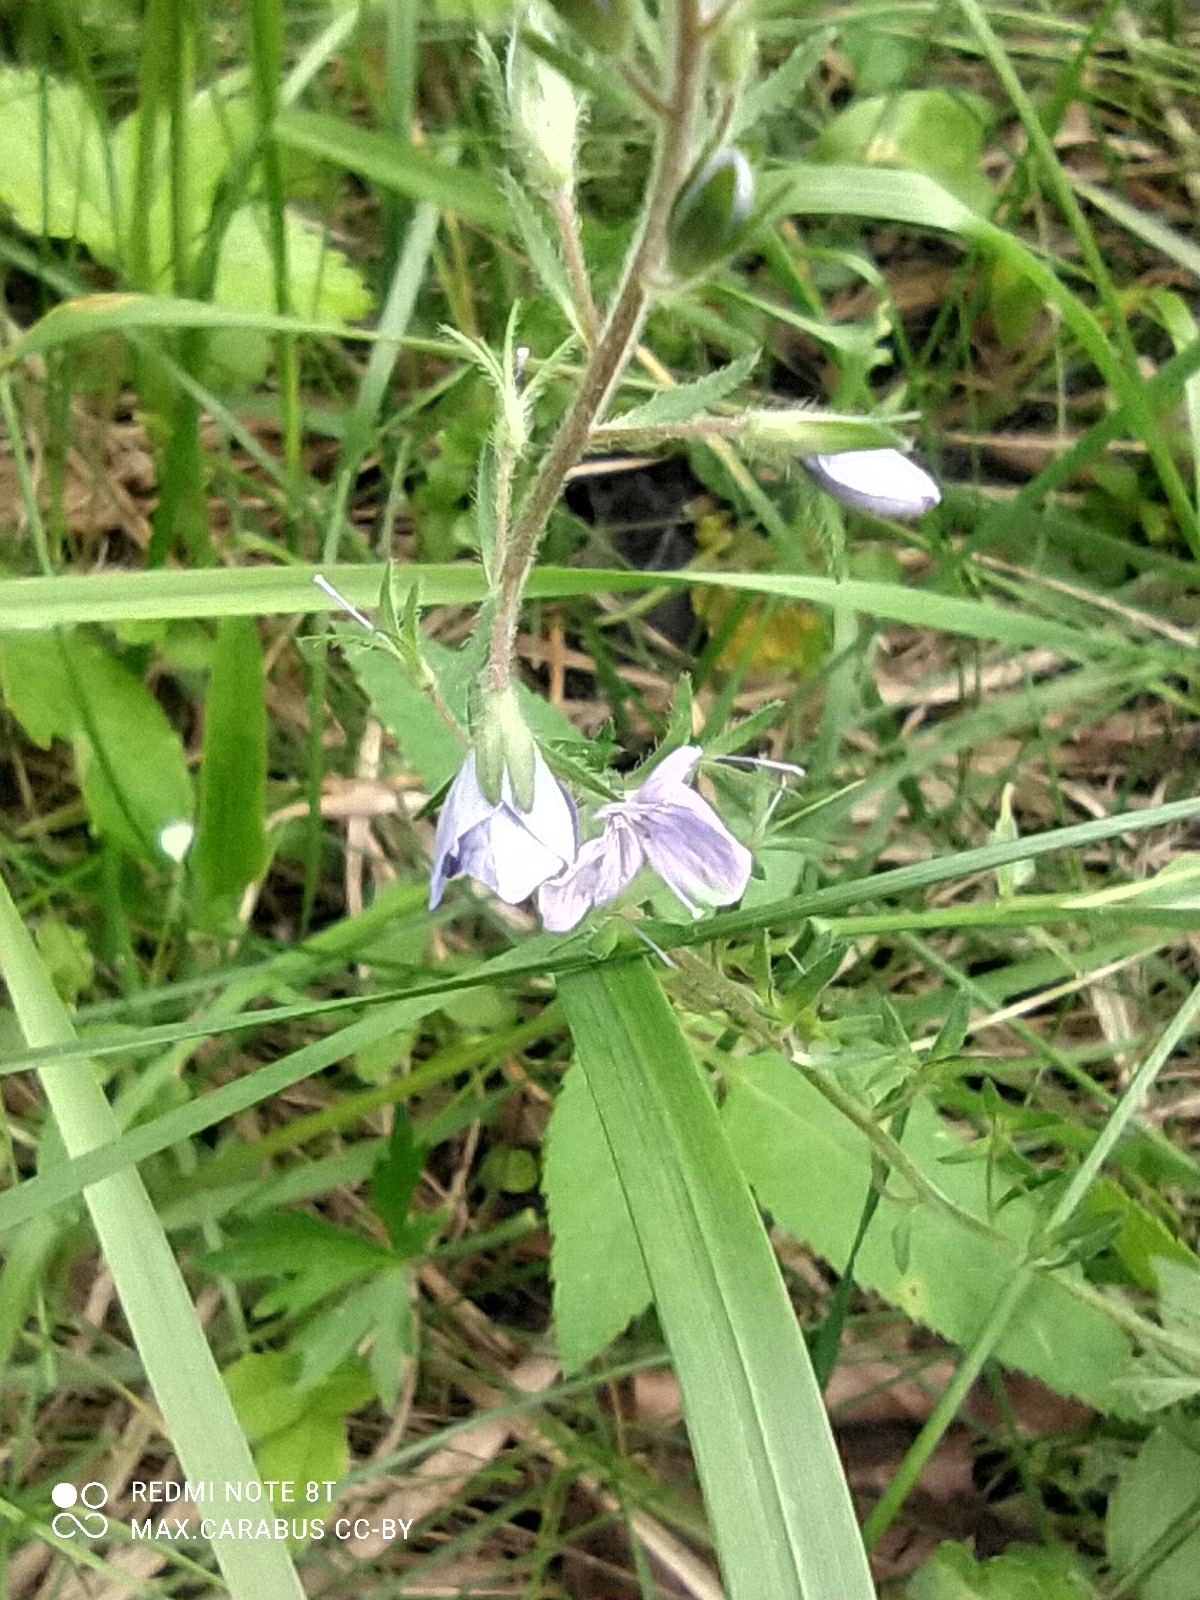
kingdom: Plantae
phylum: Tracheophyta
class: Magnoliopsida
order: Lamiales
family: Plantaginaceae
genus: Veronica
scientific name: Veronica officinalis
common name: Common speedwell
